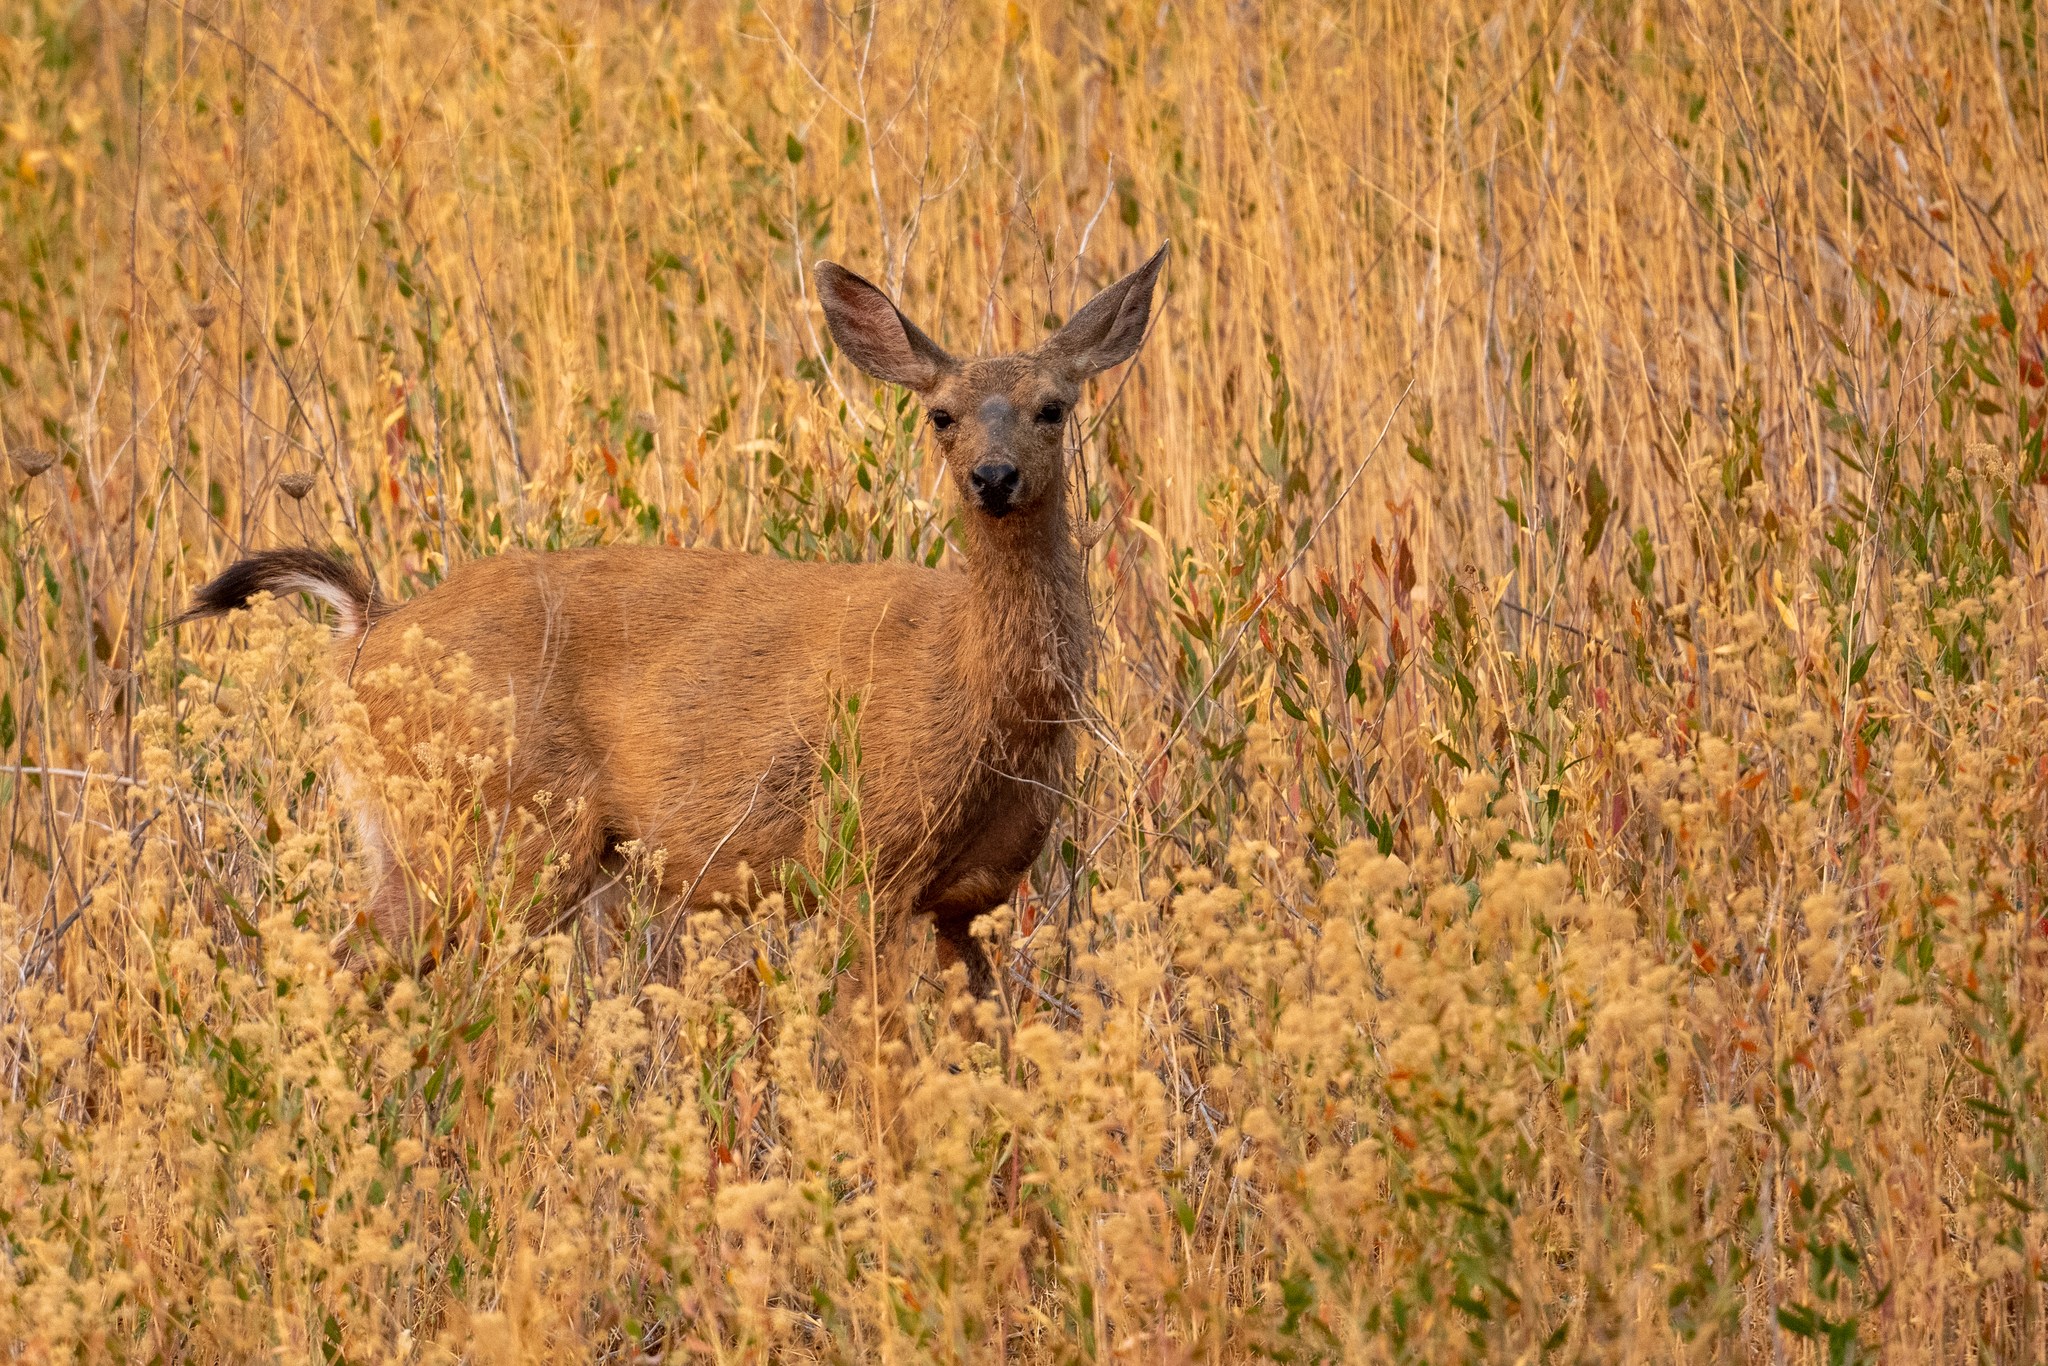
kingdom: Animalia
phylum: Chordata
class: Mammalia
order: Artiodactyla
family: Cervidae
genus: Odocoileus
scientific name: Odocoileus hemionus
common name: Mule deer
